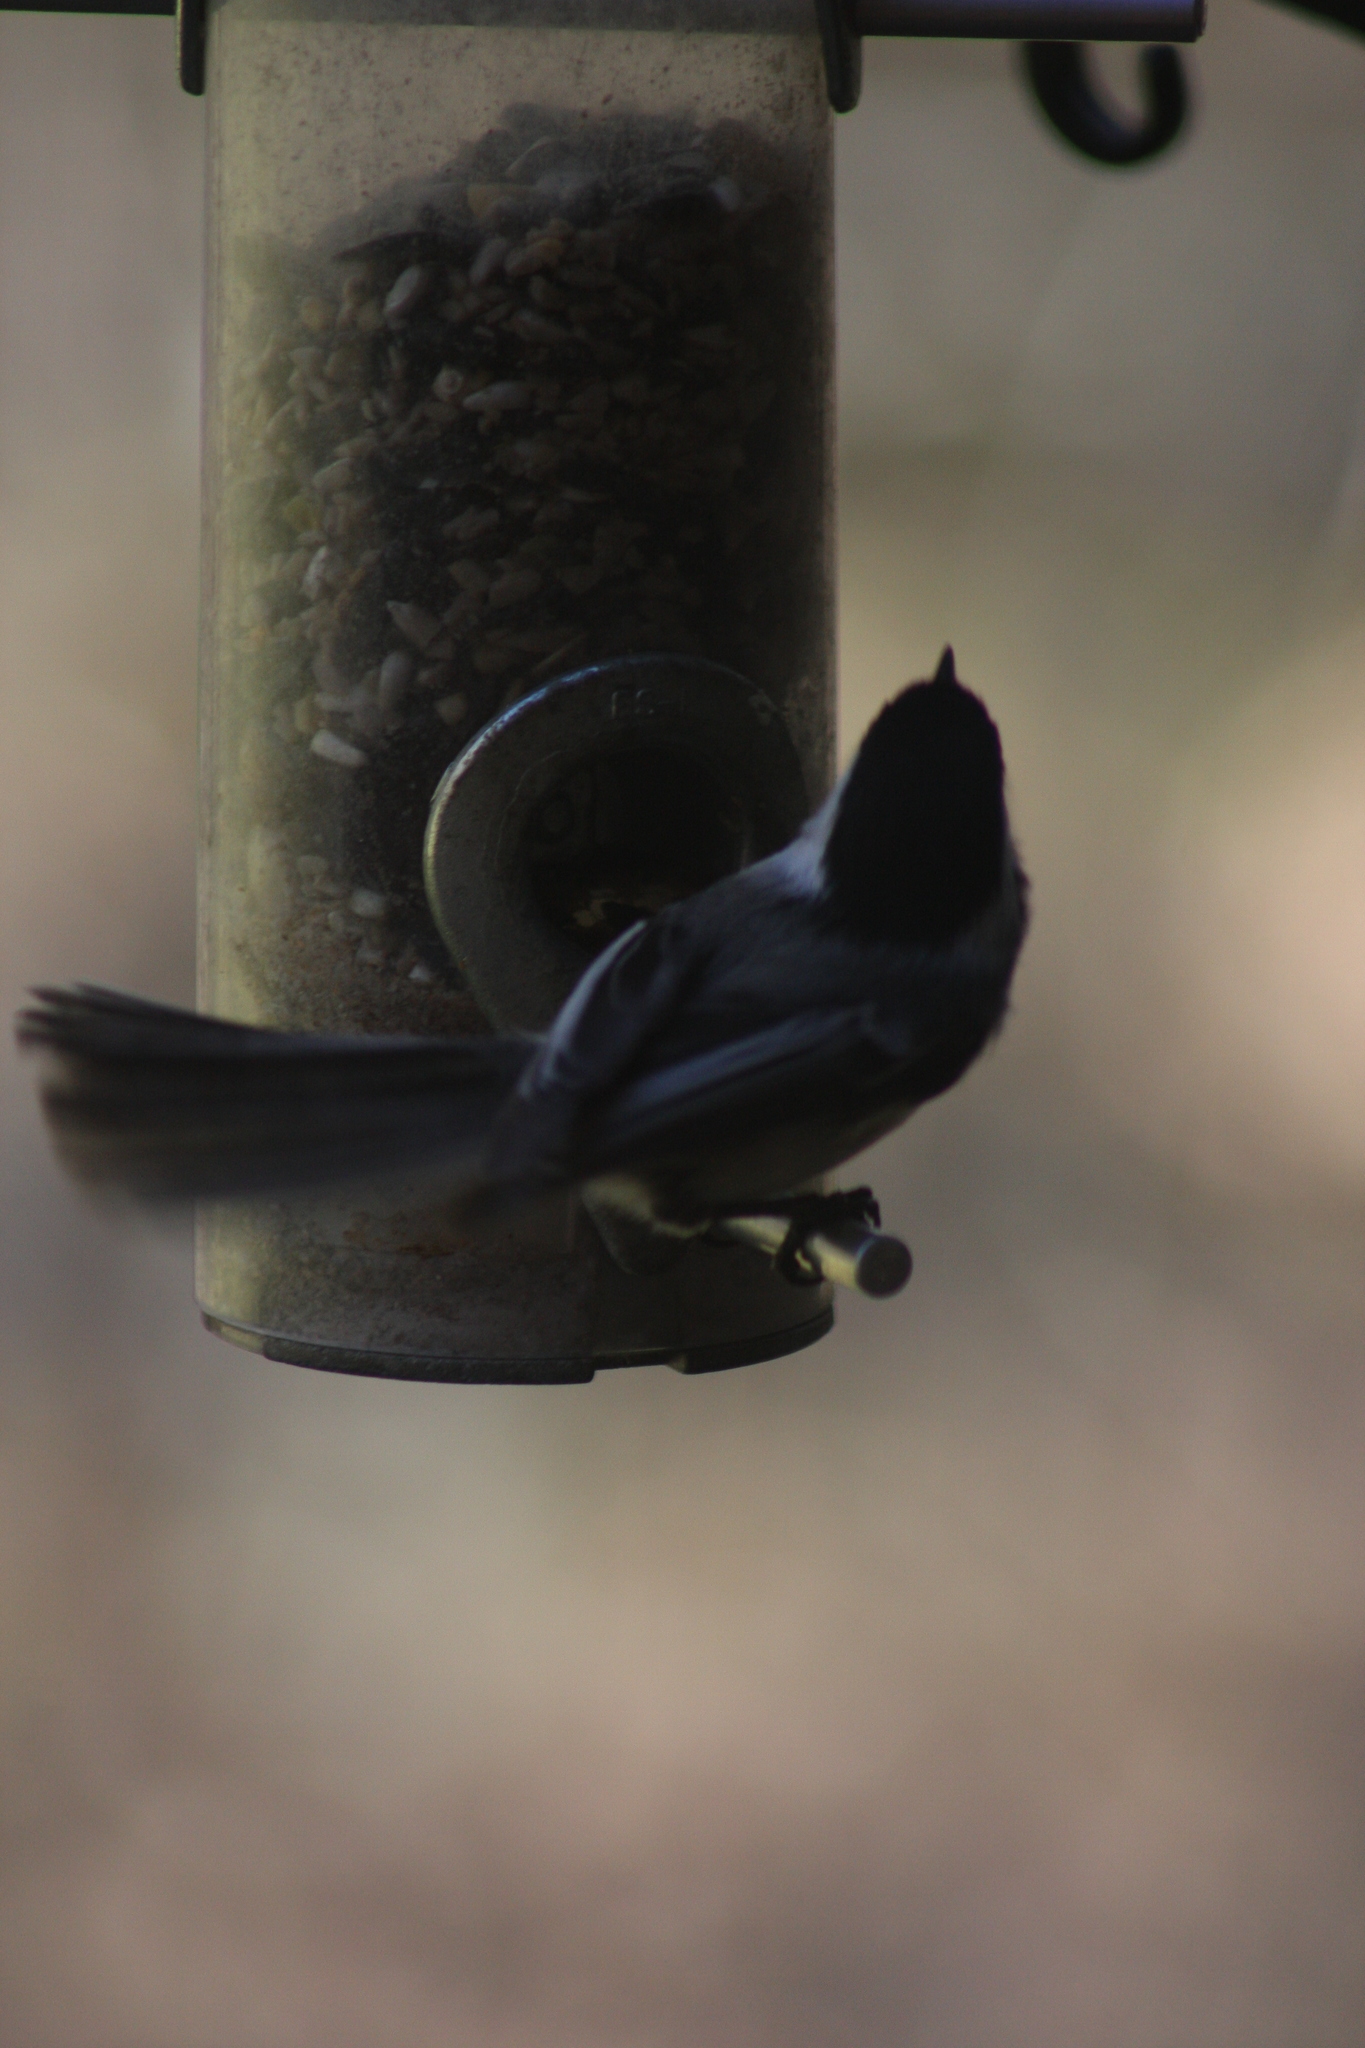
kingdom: Animalia
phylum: Chordata
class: Aves
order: Passeriformes
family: Paridae
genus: Poecile
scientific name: Poecile atricapillus
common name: Black-capped chickadee
